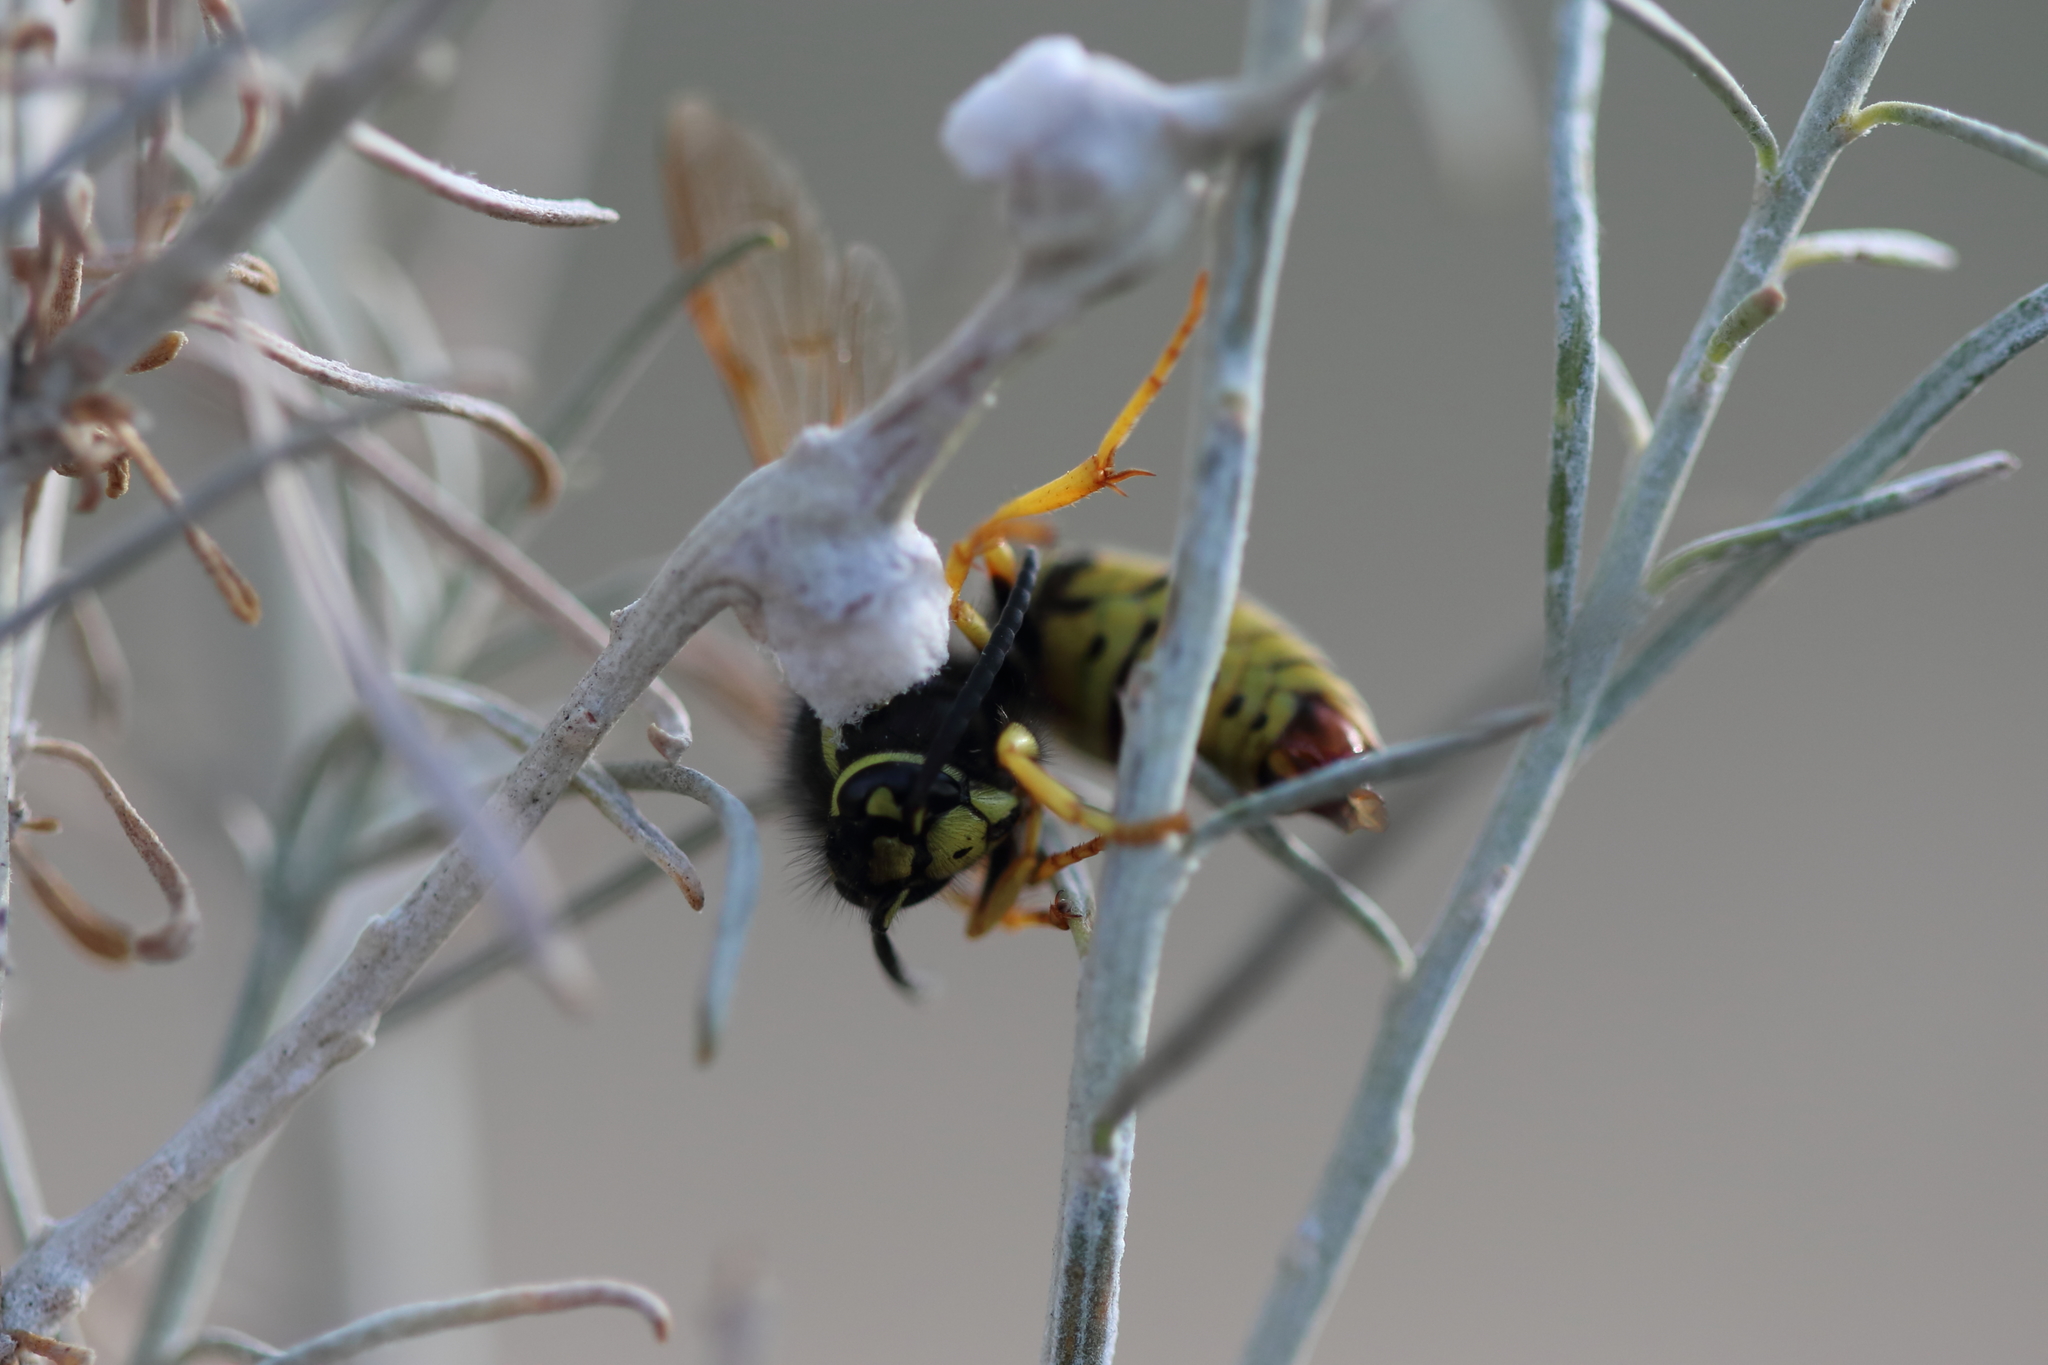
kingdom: Animalia
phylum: Arthropoda
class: Insecta
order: Hymenoptera
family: Vespidae
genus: Vespula
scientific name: Vespula
